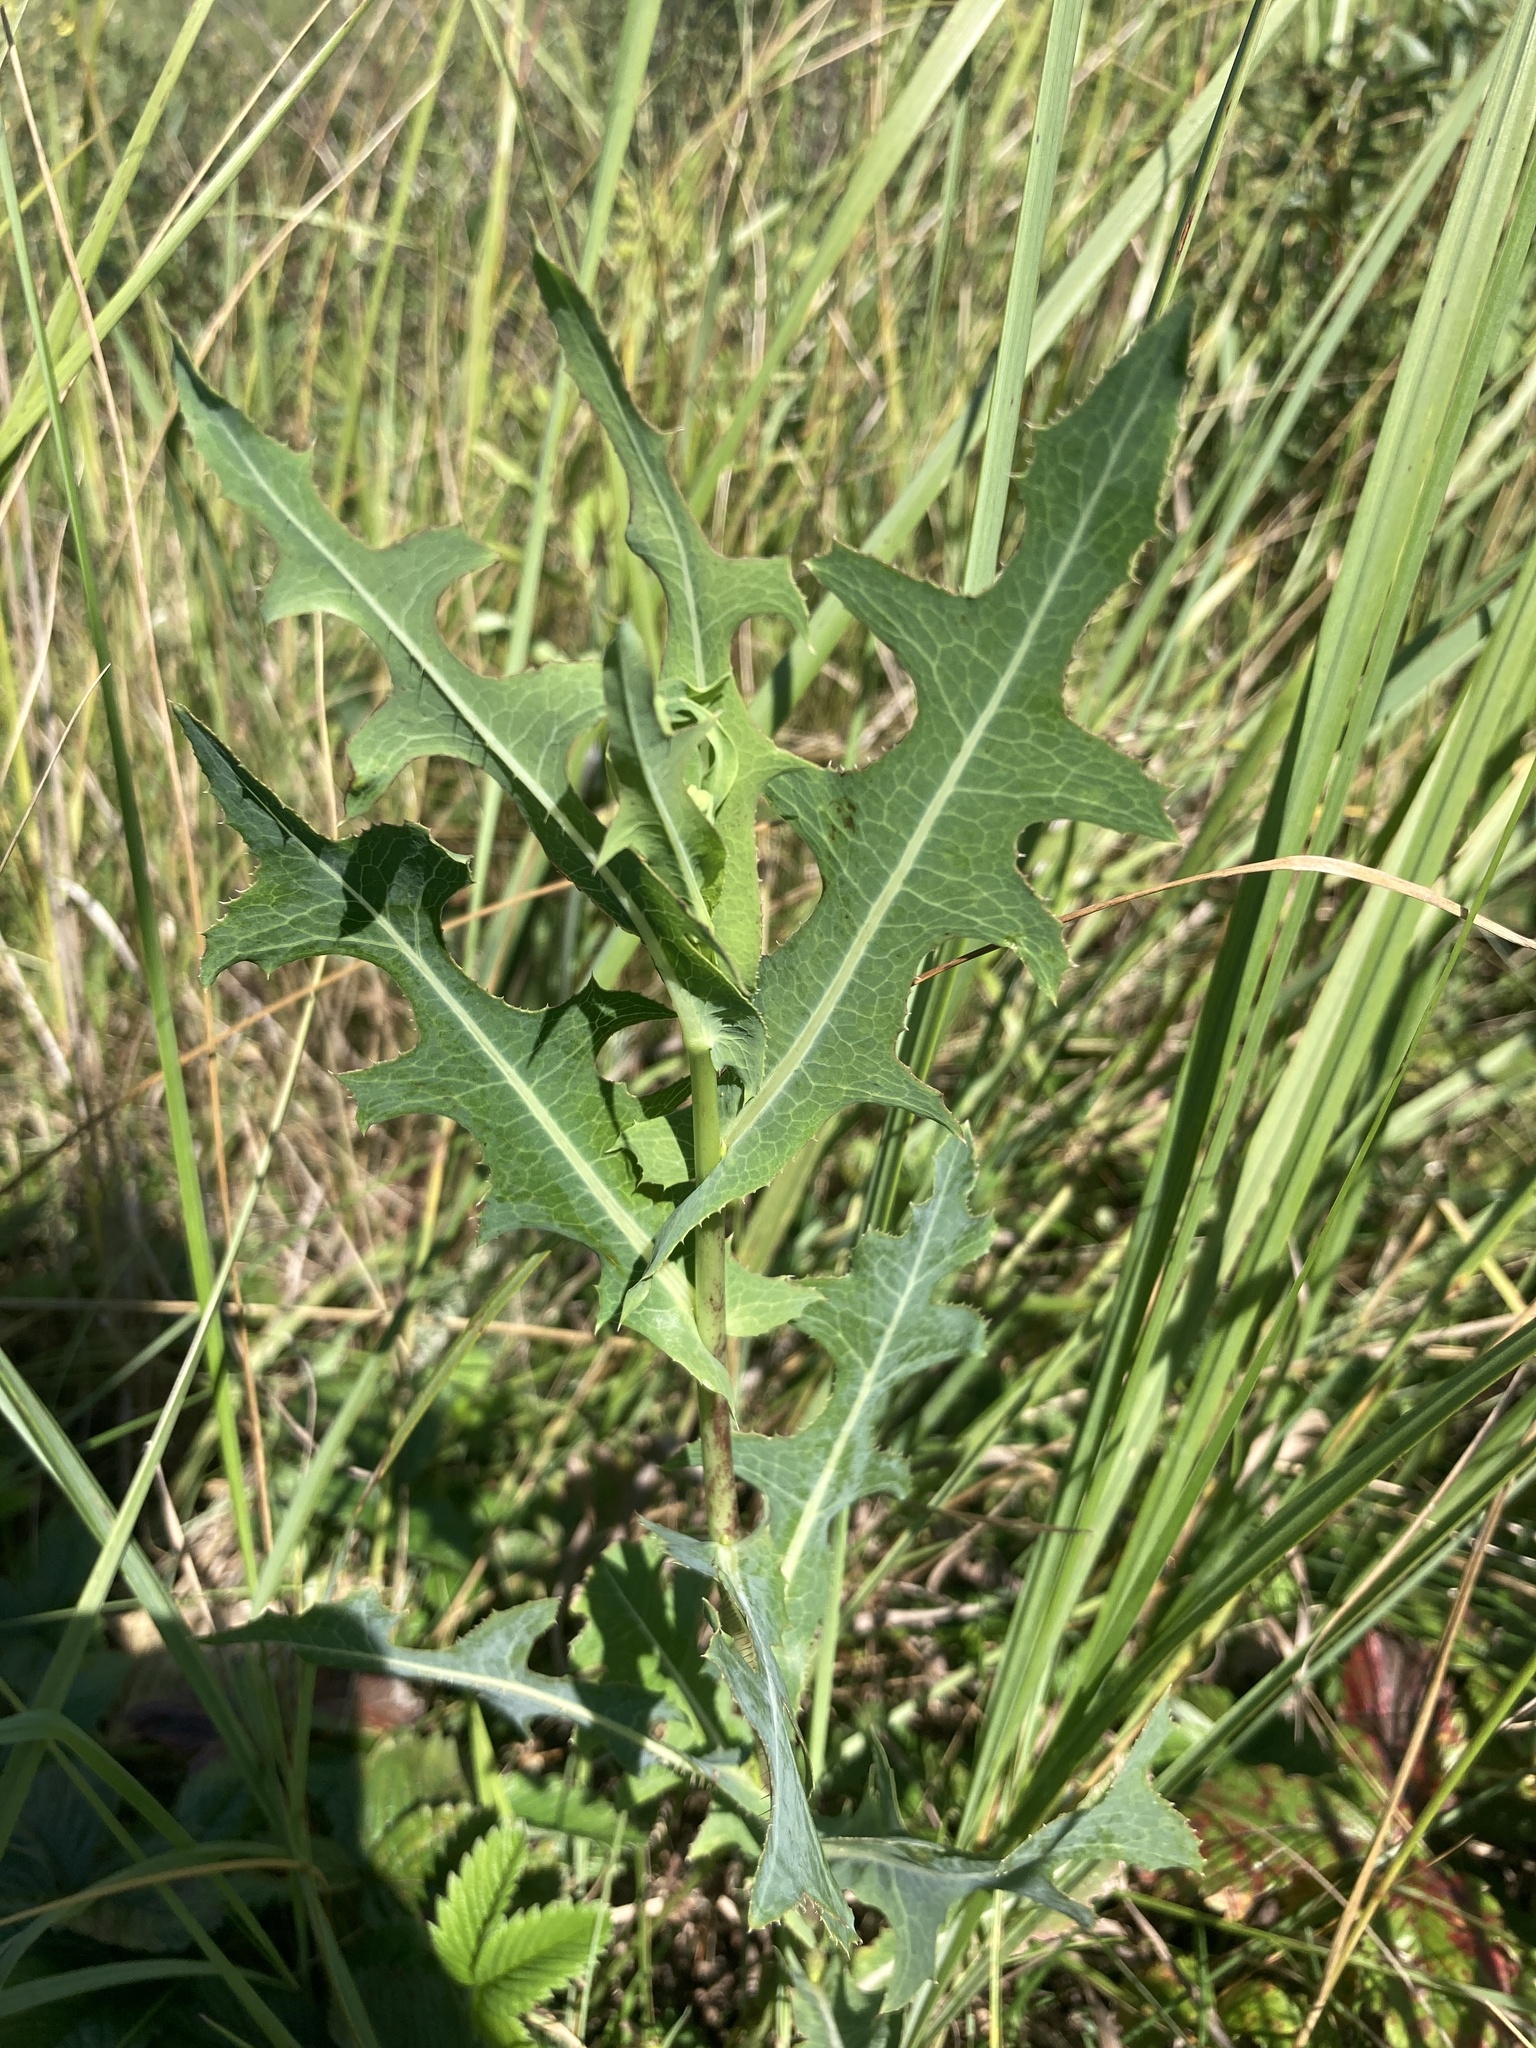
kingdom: Plantae
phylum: Tracheophyta
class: Magnoliopsida
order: Asterales
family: Asteraceae
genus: Lactuca
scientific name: Lactuca serriola
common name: Prickly lettuce
